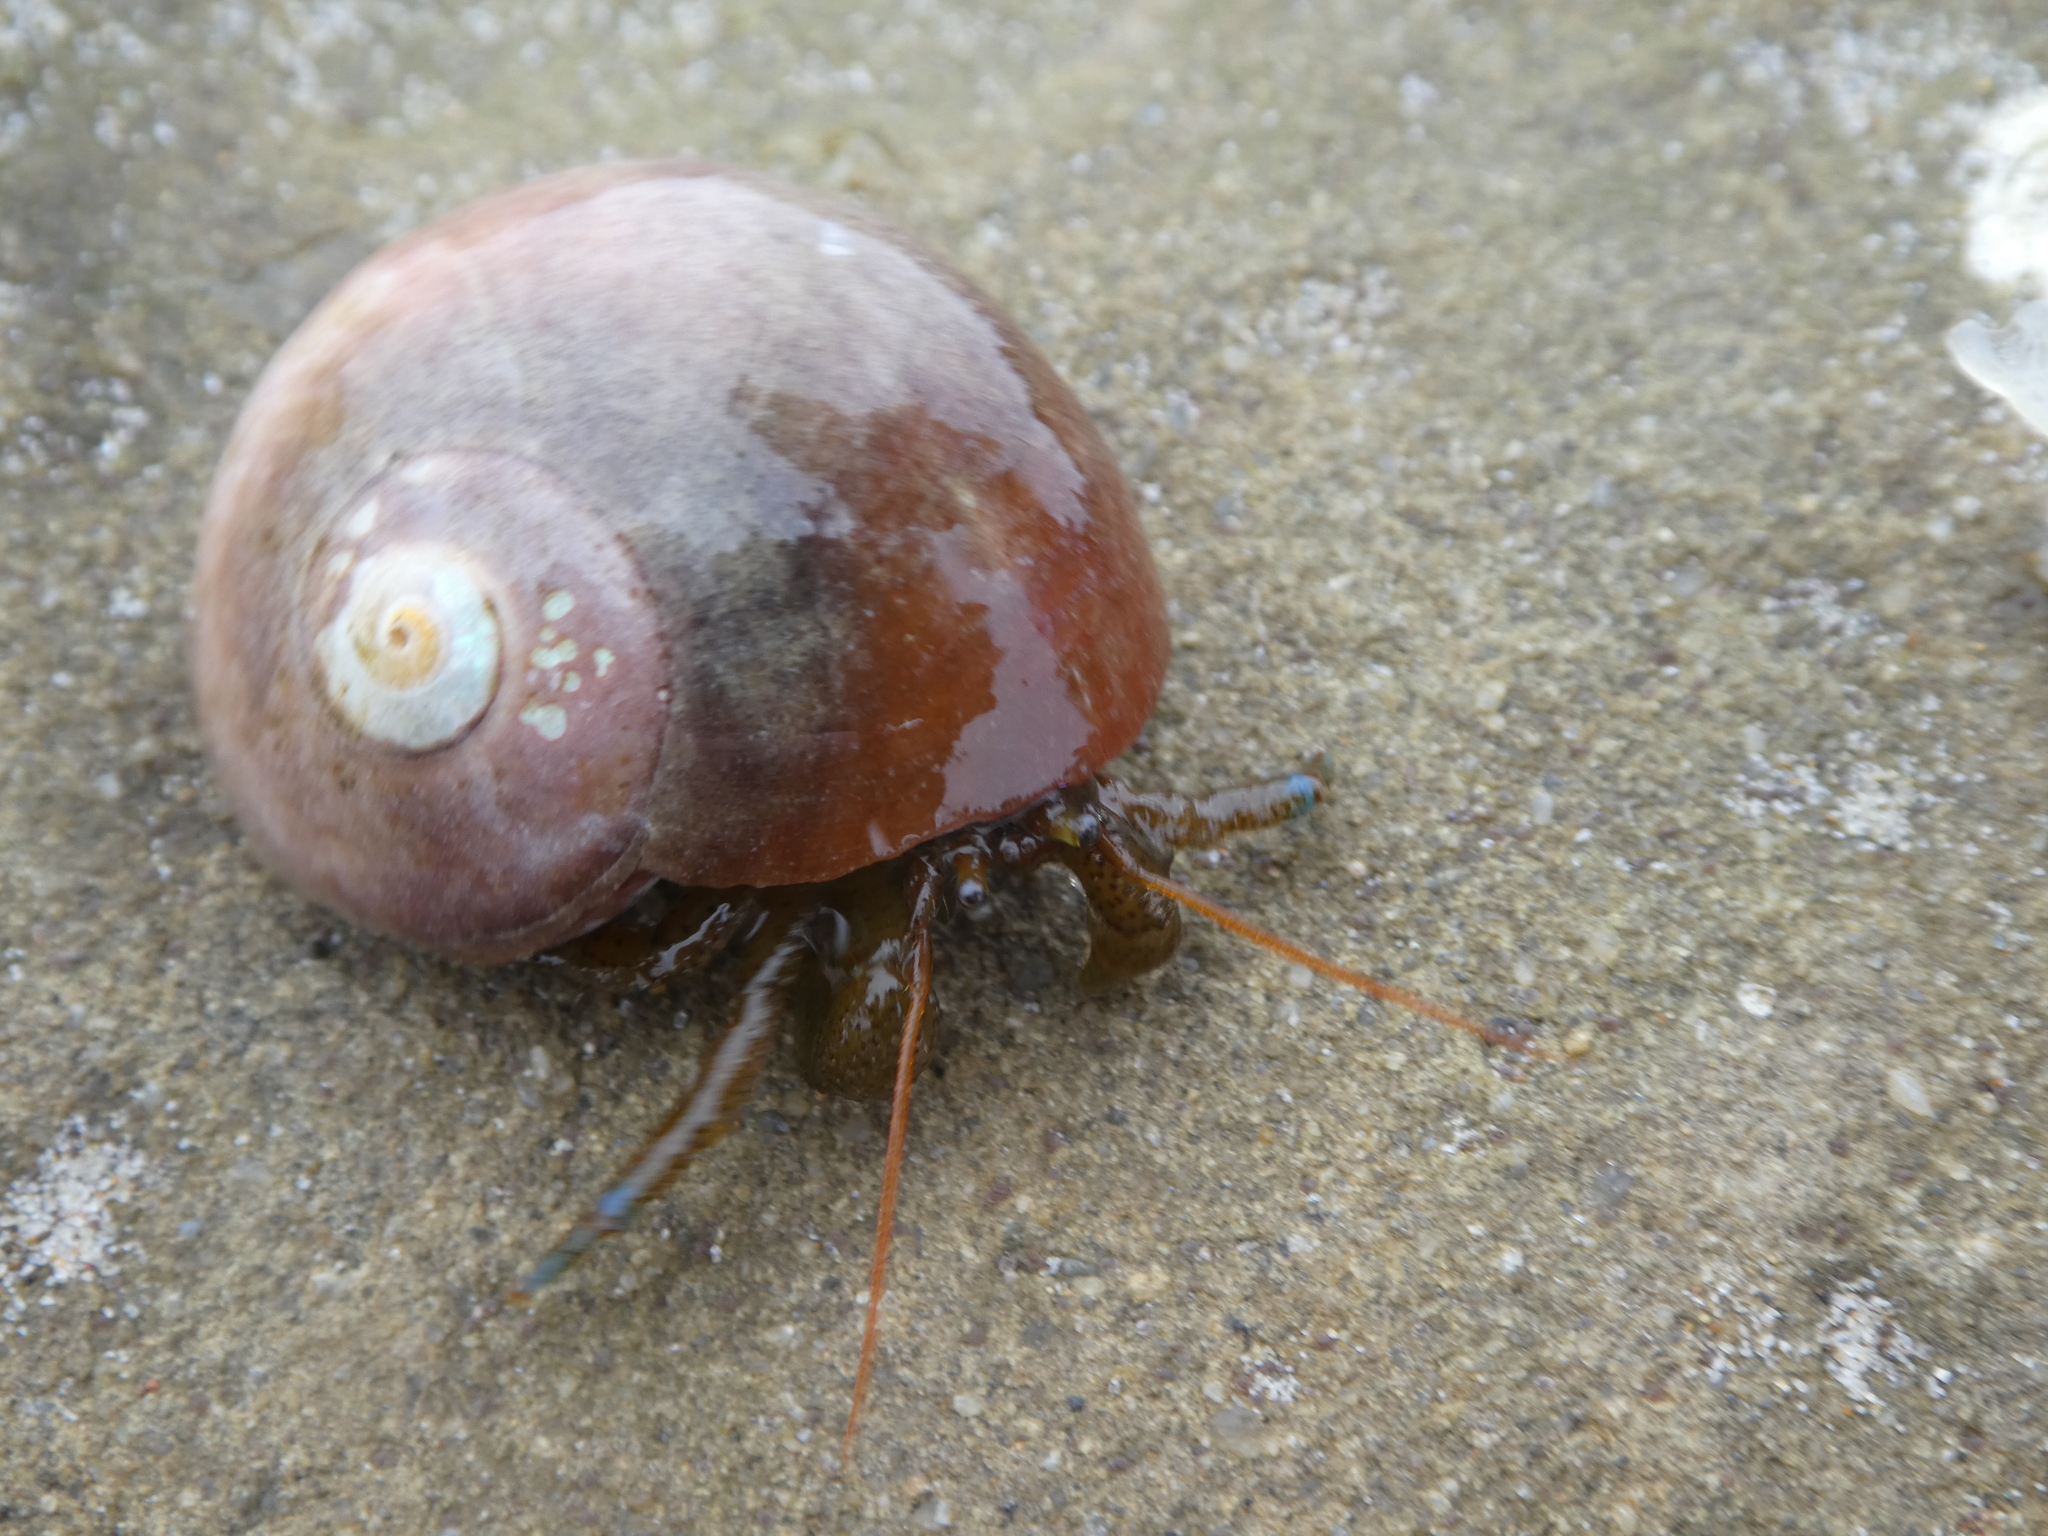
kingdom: Animalia
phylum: Arthropoda
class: Malacostraca
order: Decapoda
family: Paguridae
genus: Pagurus
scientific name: Pagurus samuelis
